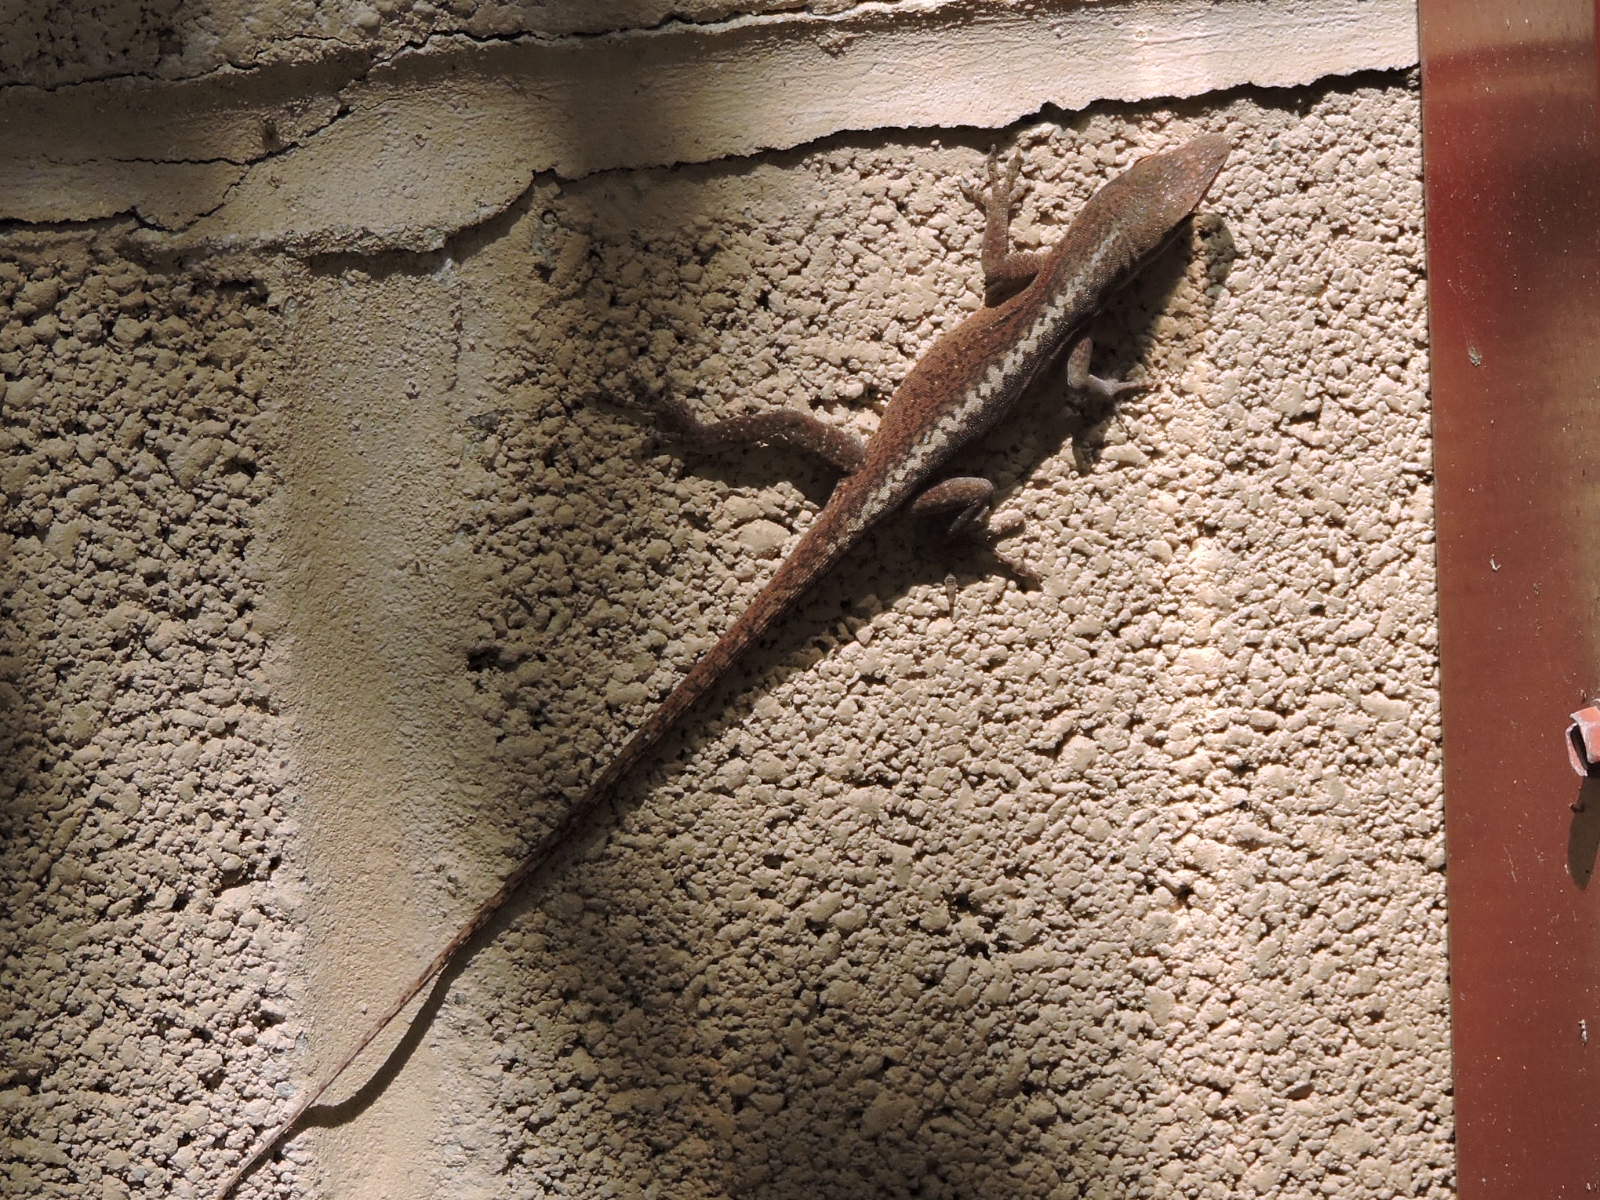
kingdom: Animalia
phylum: Chordata
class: Squamata
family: Dactyloidae
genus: Anolis
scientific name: Anolis carolinensis
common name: Green anole
